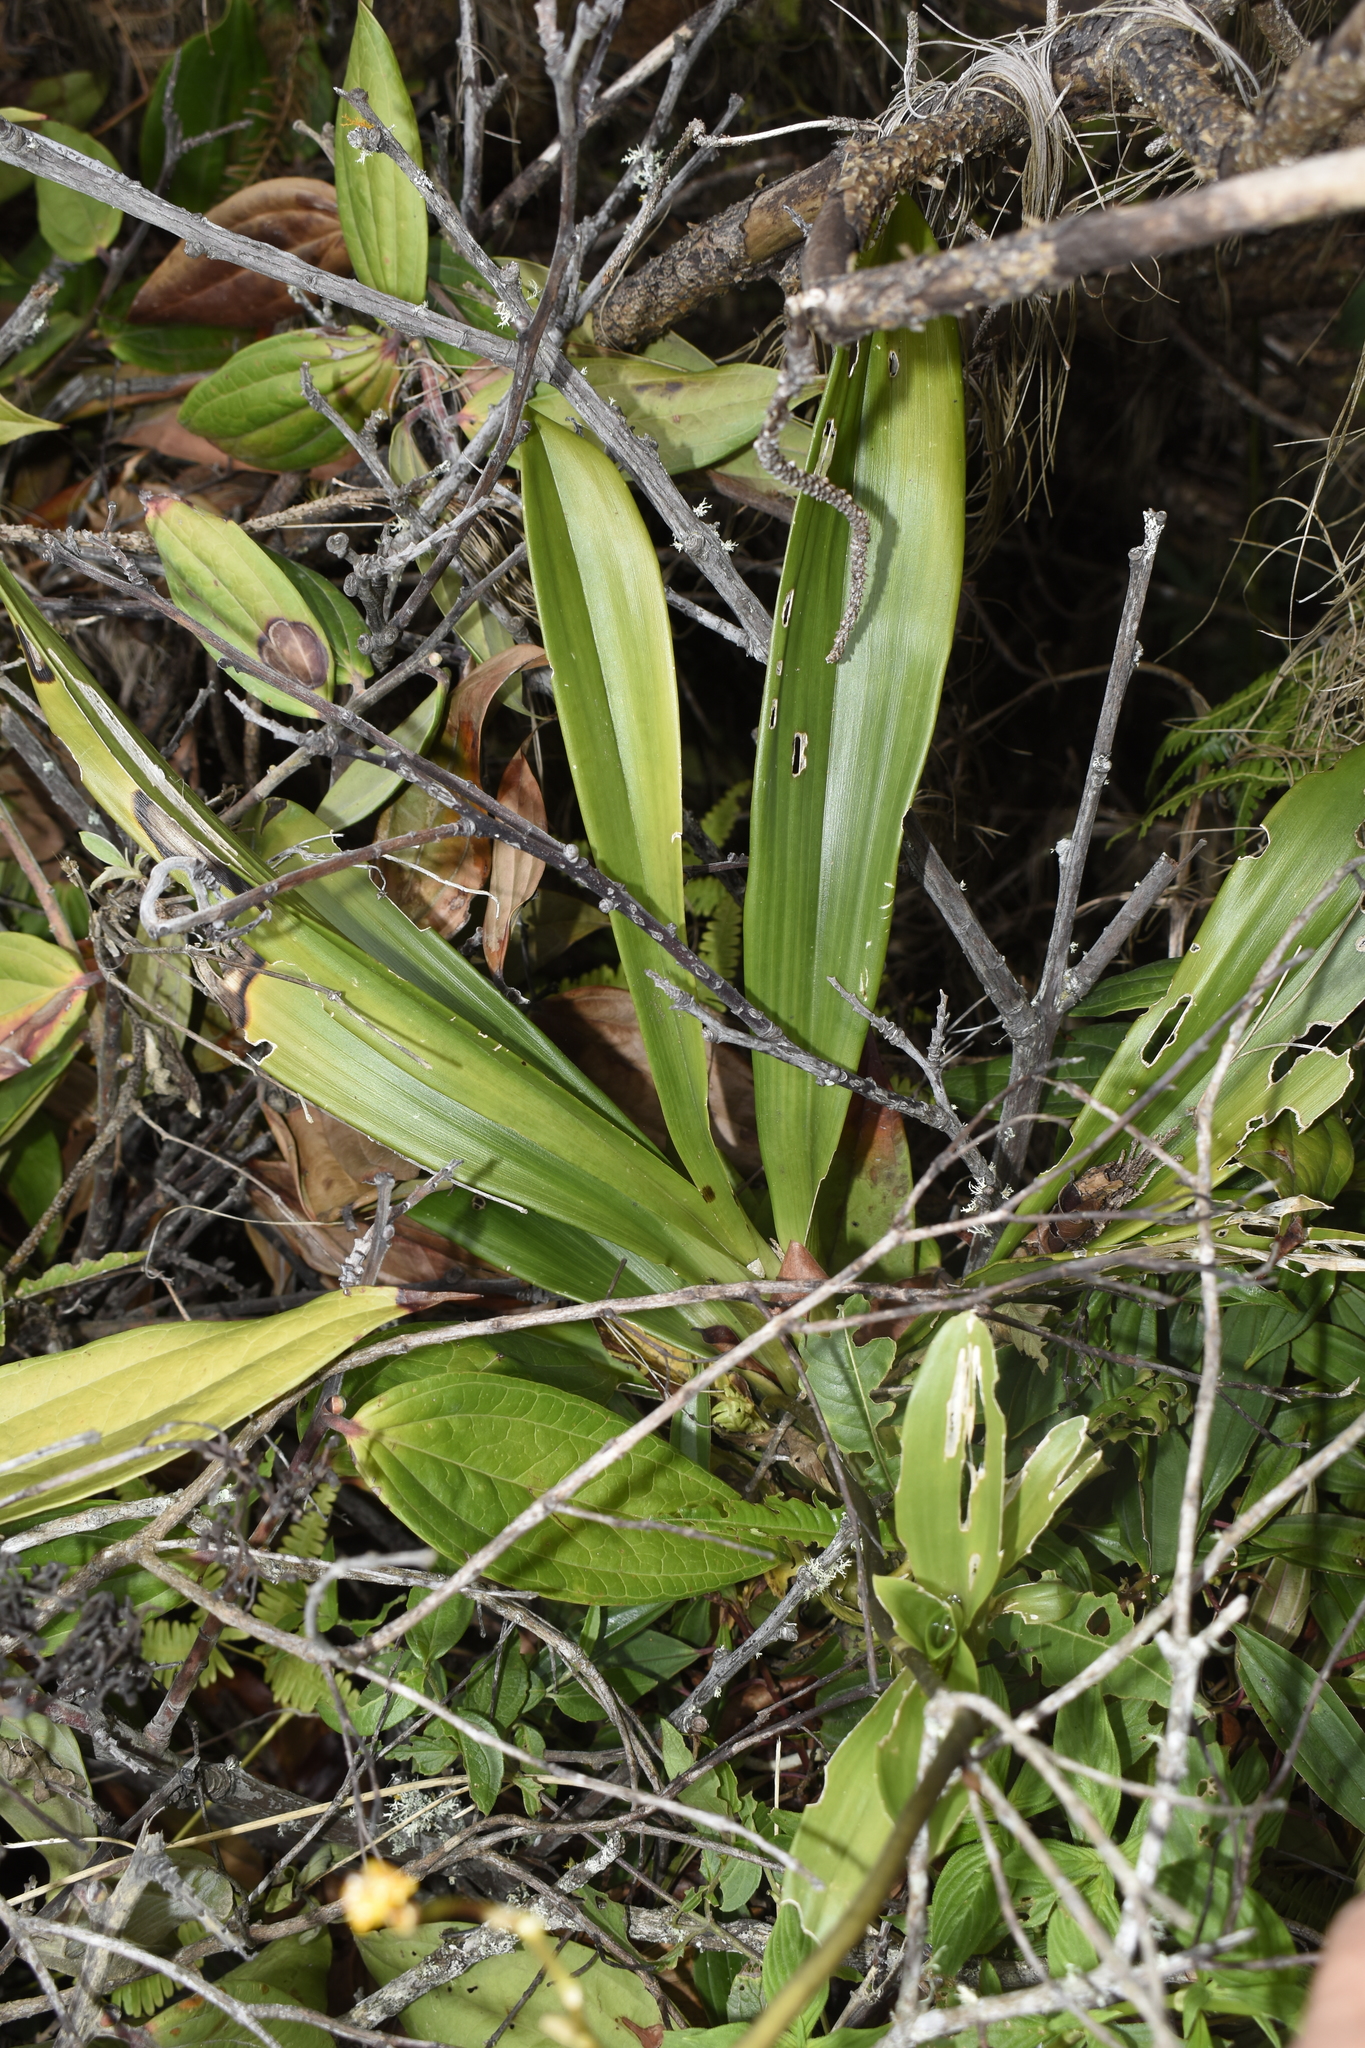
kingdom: Plantae
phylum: Tracheophyta
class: Liliopsida
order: Asparagales
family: Orchidaceae
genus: Cyrtochilum
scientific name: Cyrtochilum ventilabrum
